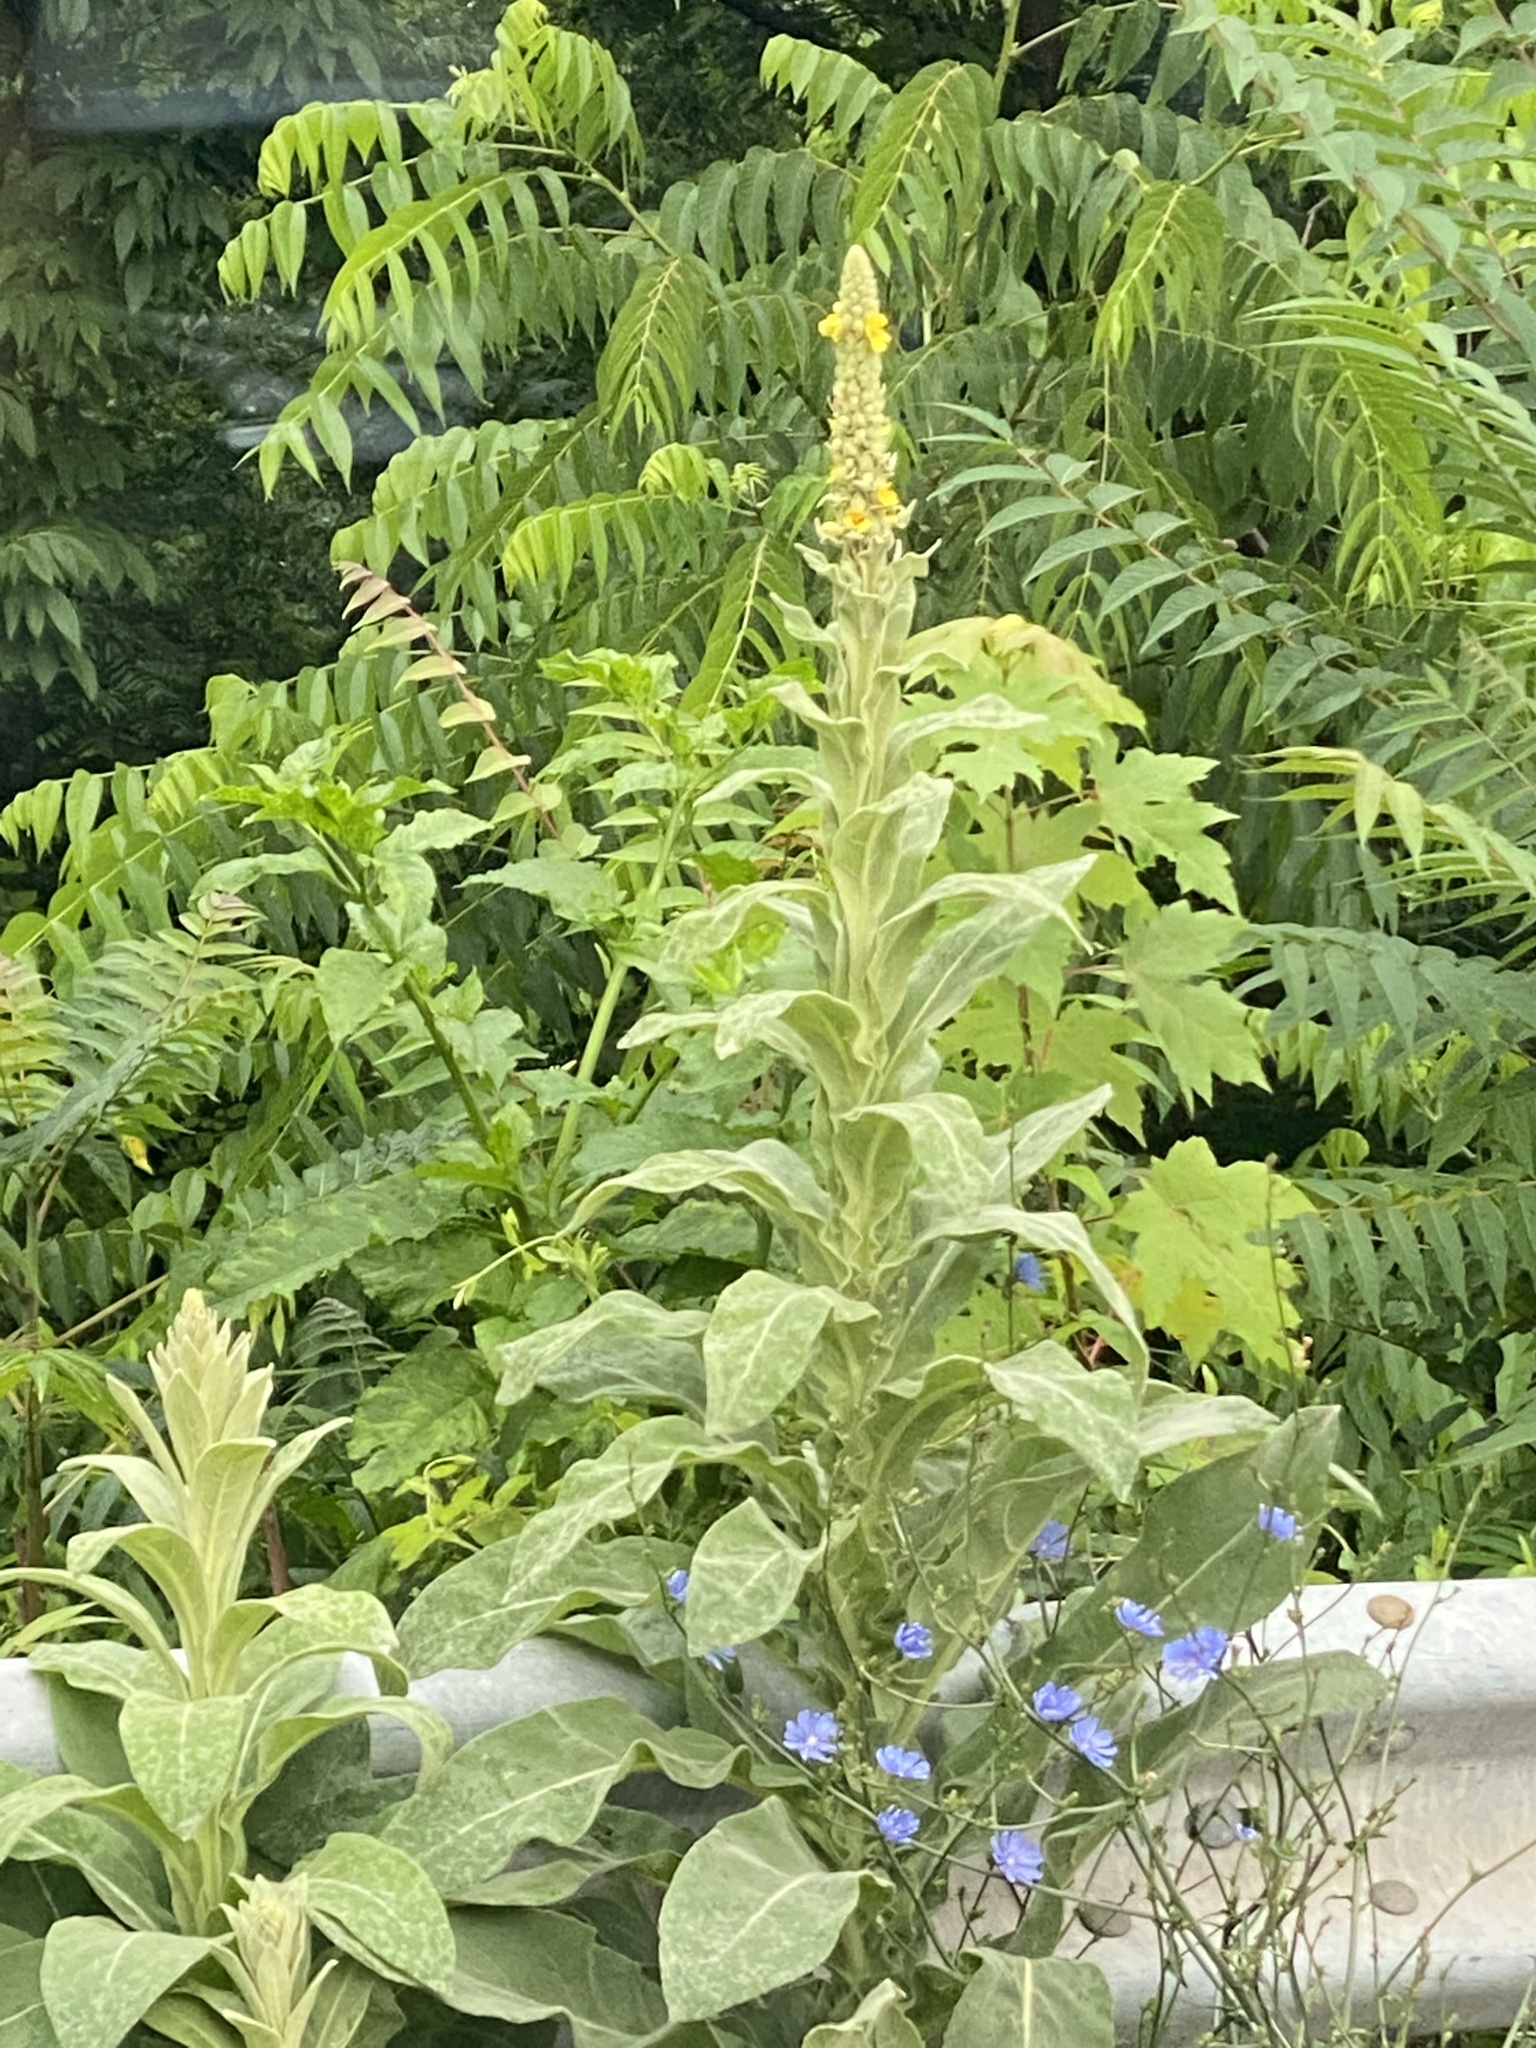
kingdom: Plantae
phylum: Tracheophyta
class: Magnoliopsida
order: Lamiales
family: Scrophulariaceae
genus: Verbascum
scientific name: Verbascum thapsus
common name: Common mullein
